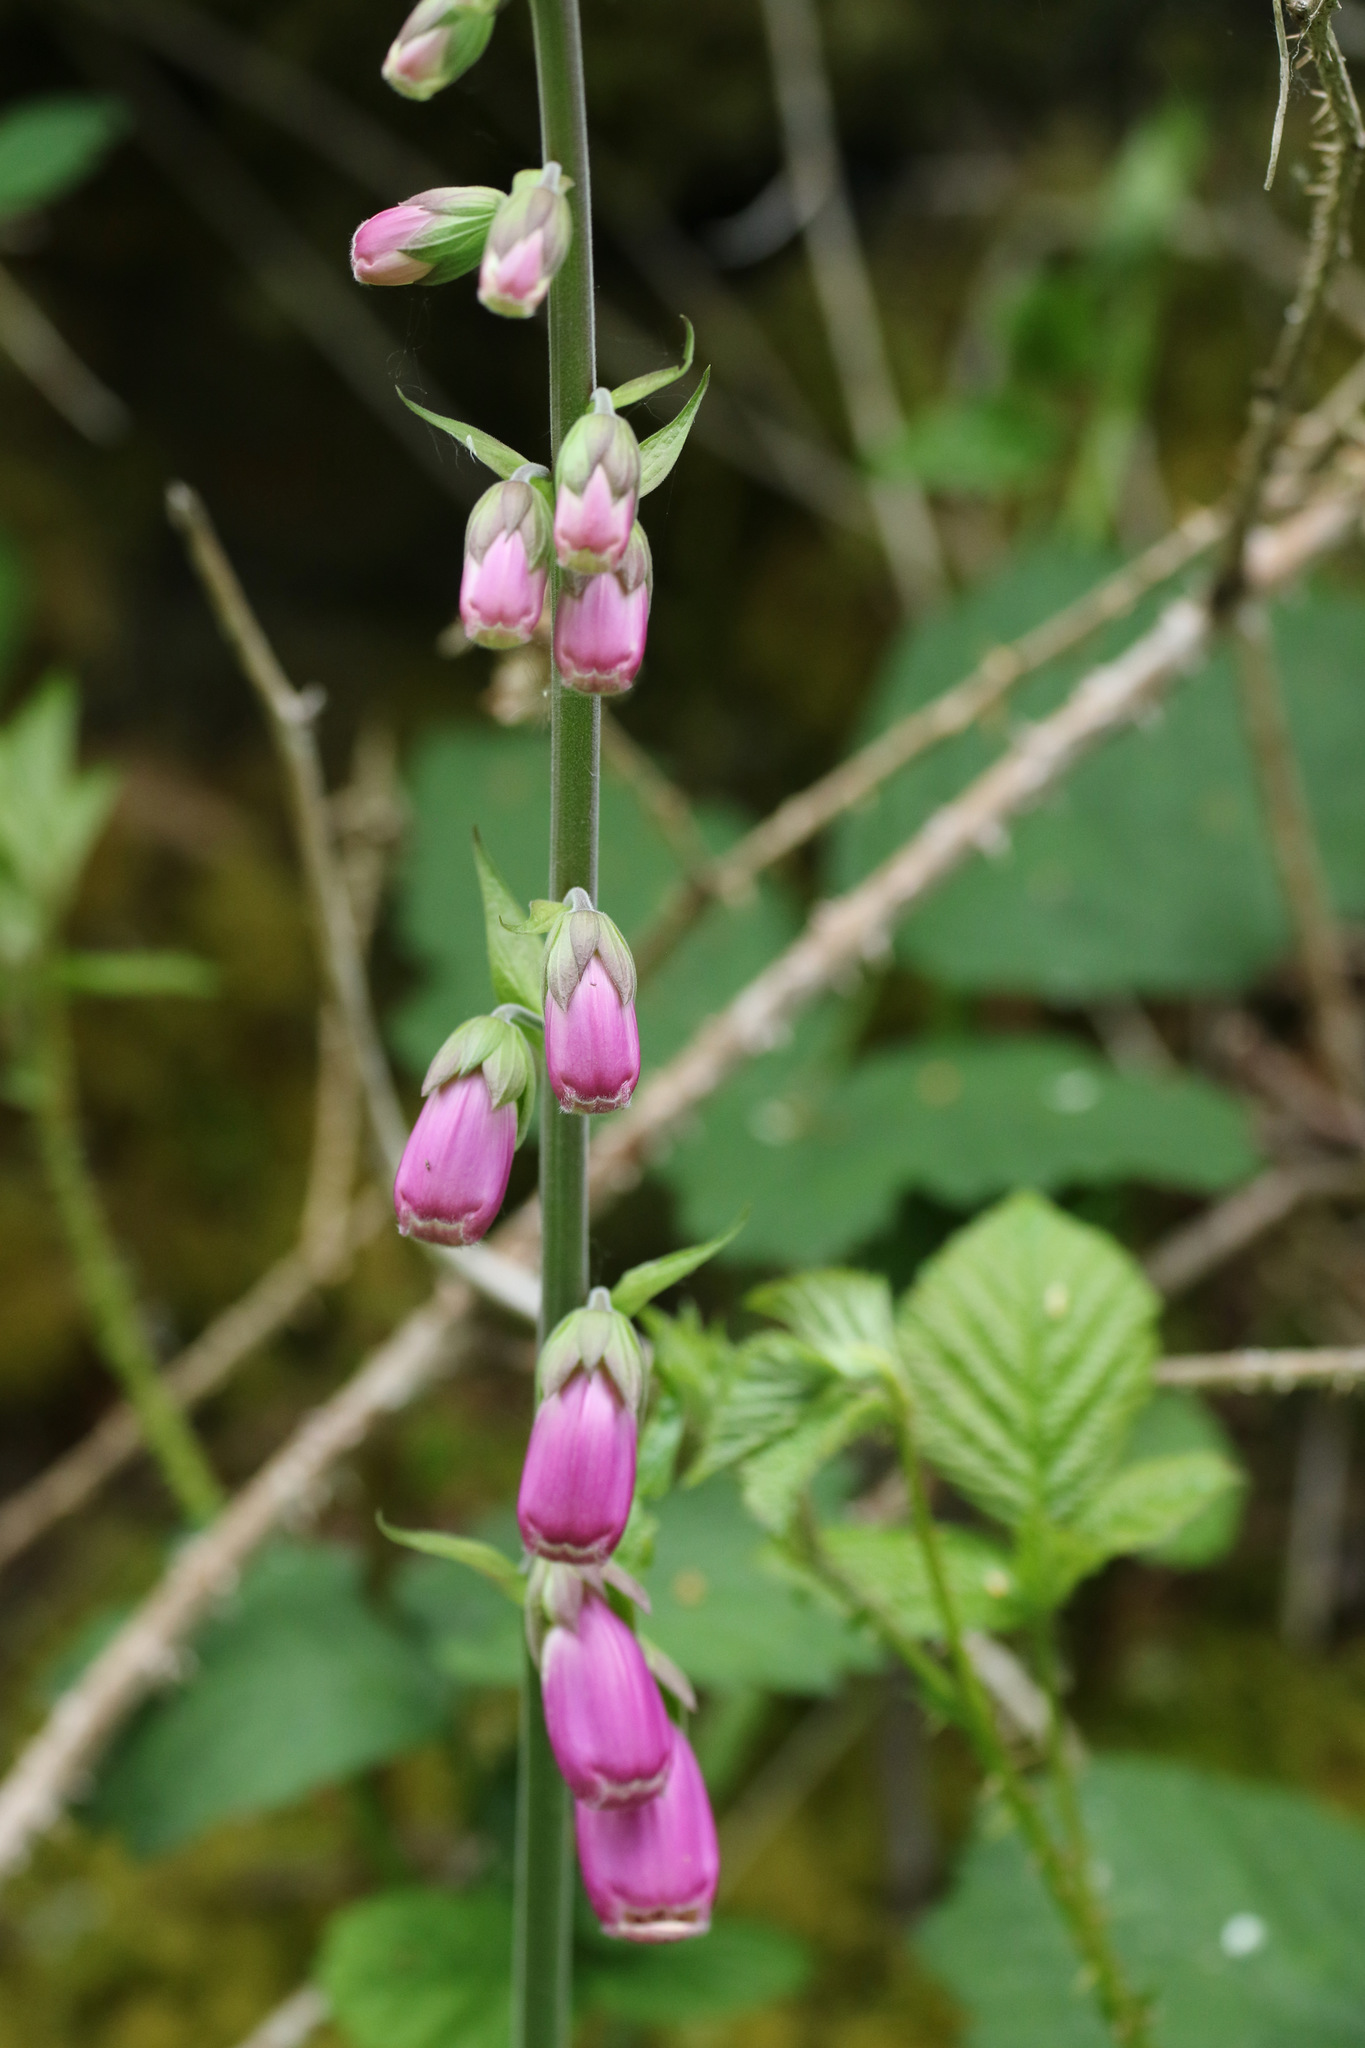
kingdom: Plantae
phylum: Tracheophyta
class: Magnoliopsida
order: Lamiales
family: Plantaginaceae
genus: Digitalis
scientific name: Digitalis purpurea
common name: Foxglove
